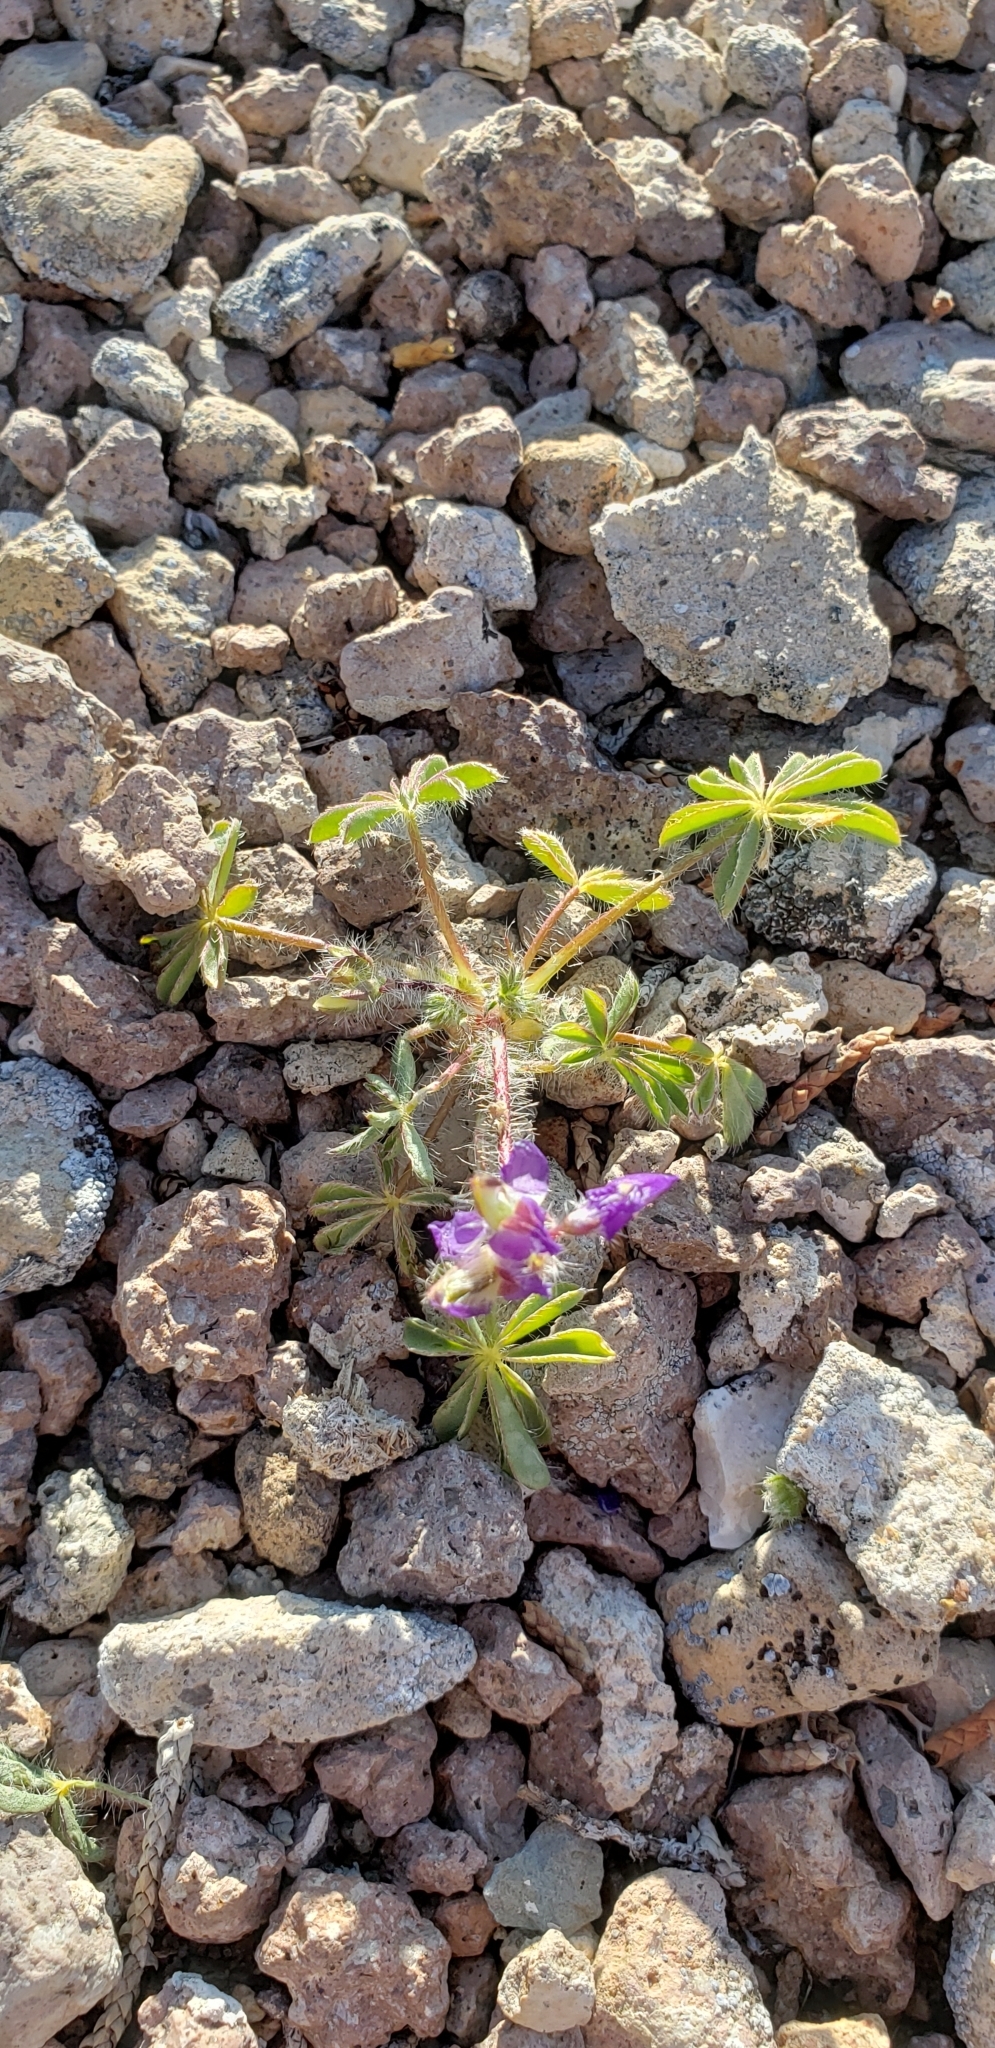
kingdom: Plantae
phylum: Tracheophyta
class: Magnoliopsida
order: Fabales
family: Fabaceae
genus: Lupinus
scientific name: Lupinus flavoculatus
